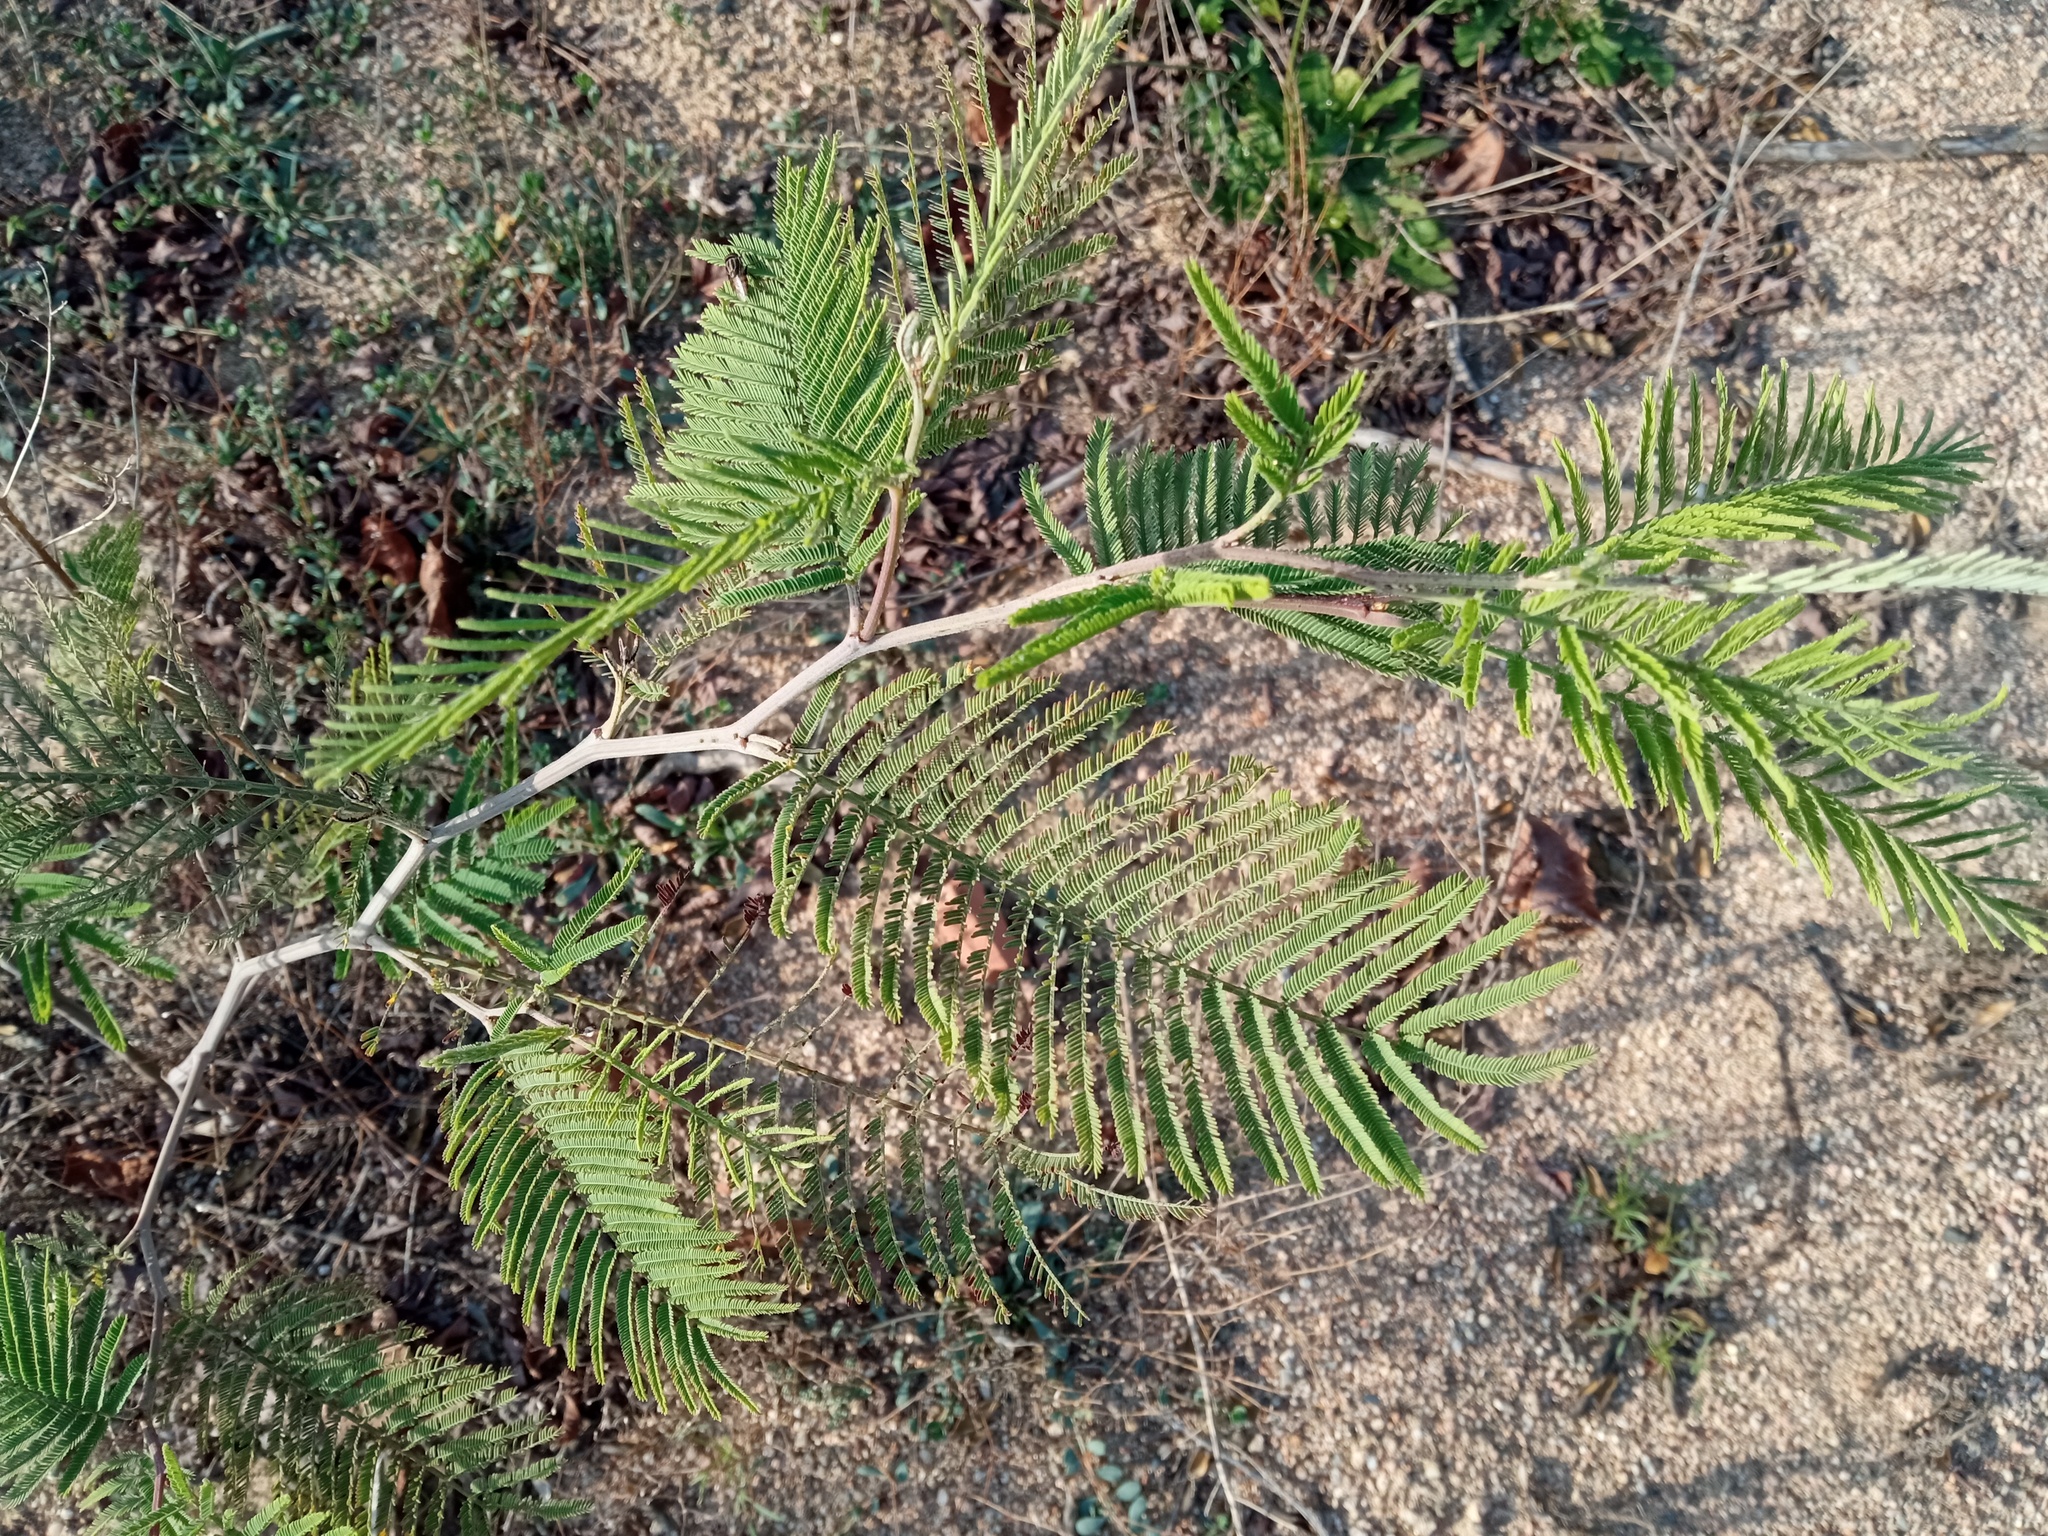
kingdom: Plantae
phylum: Tracheophyta
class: Magnoliopsida
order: Fabales
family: Fabaceae
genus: Acacia
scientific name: Acacia dealbata
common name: Silver wattle
